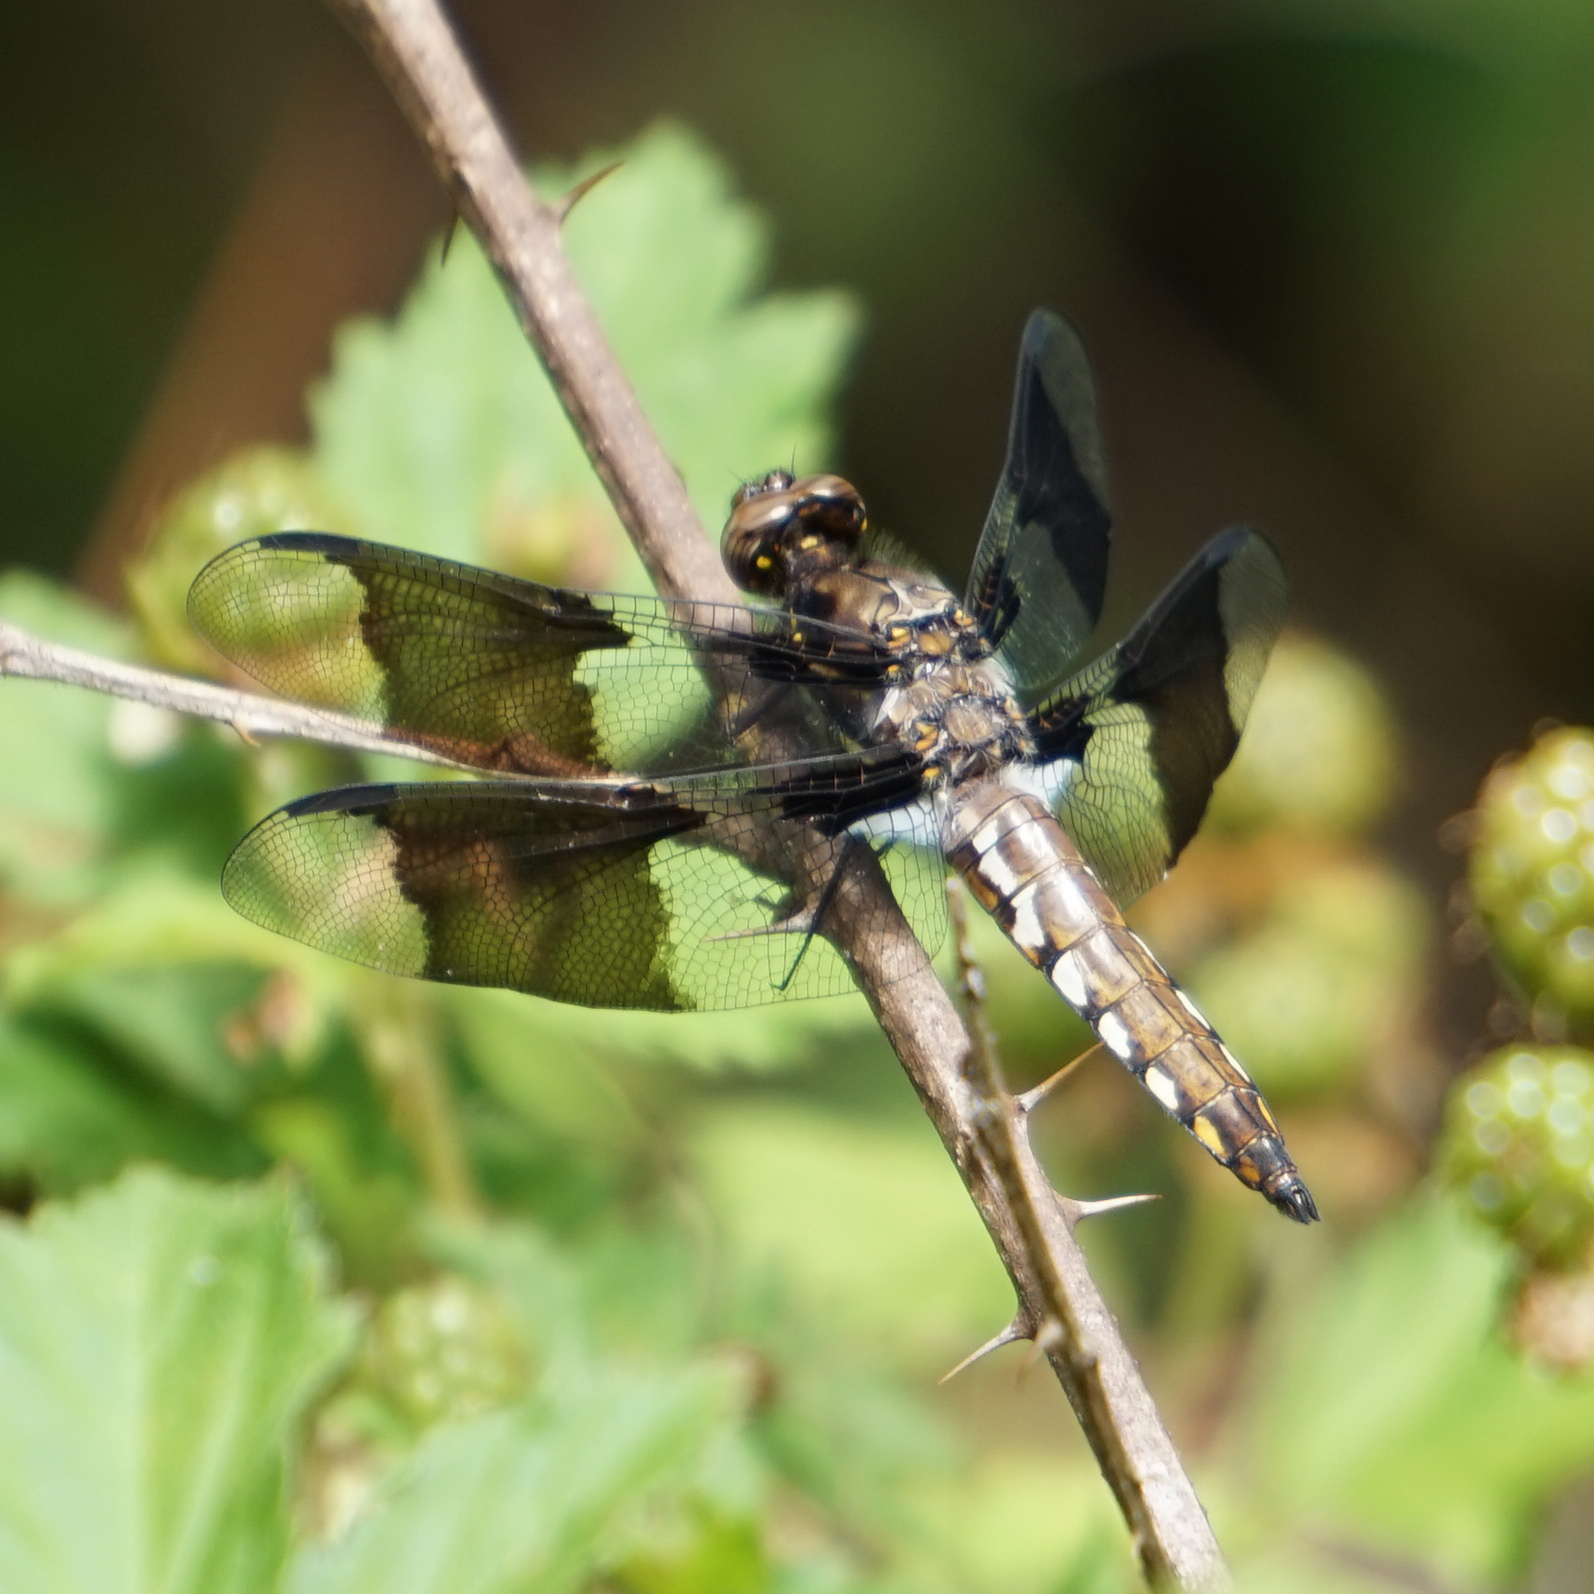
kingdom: Animalia
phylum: Arthropoda
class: Insecta
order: Odonata
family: Libellulidae
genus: Plathemis
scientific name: Plathemis lydia
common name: Common whitetail
